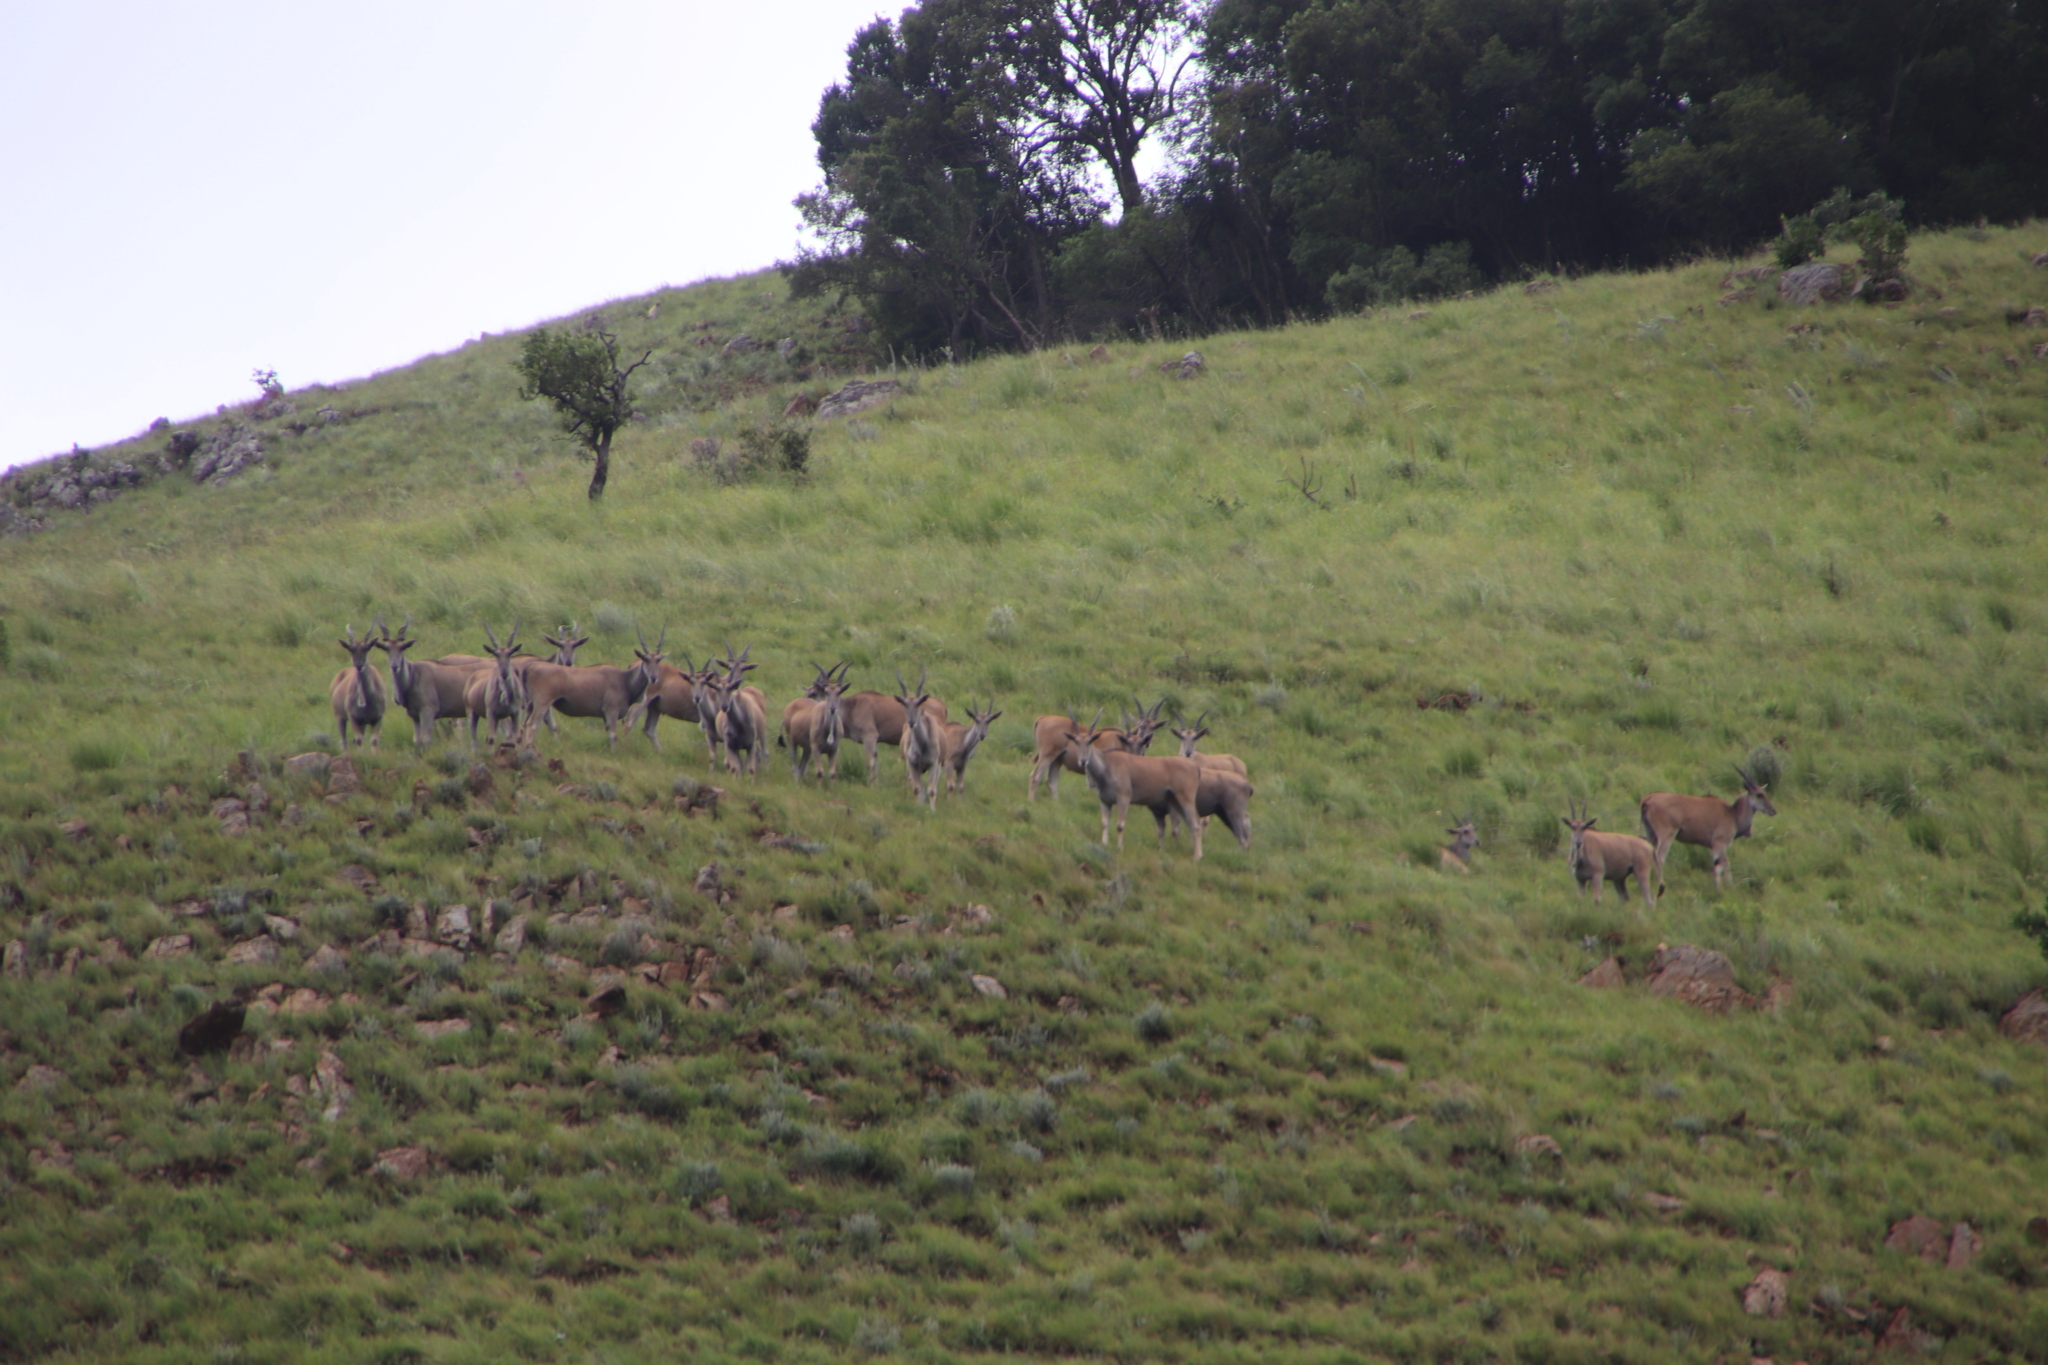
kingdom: Animalia
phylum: Chordata
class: Mammalia
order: Artiodactyla
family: Bovidae
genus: Taurotragus
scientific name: Taurotragus oryx
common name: Common eland
